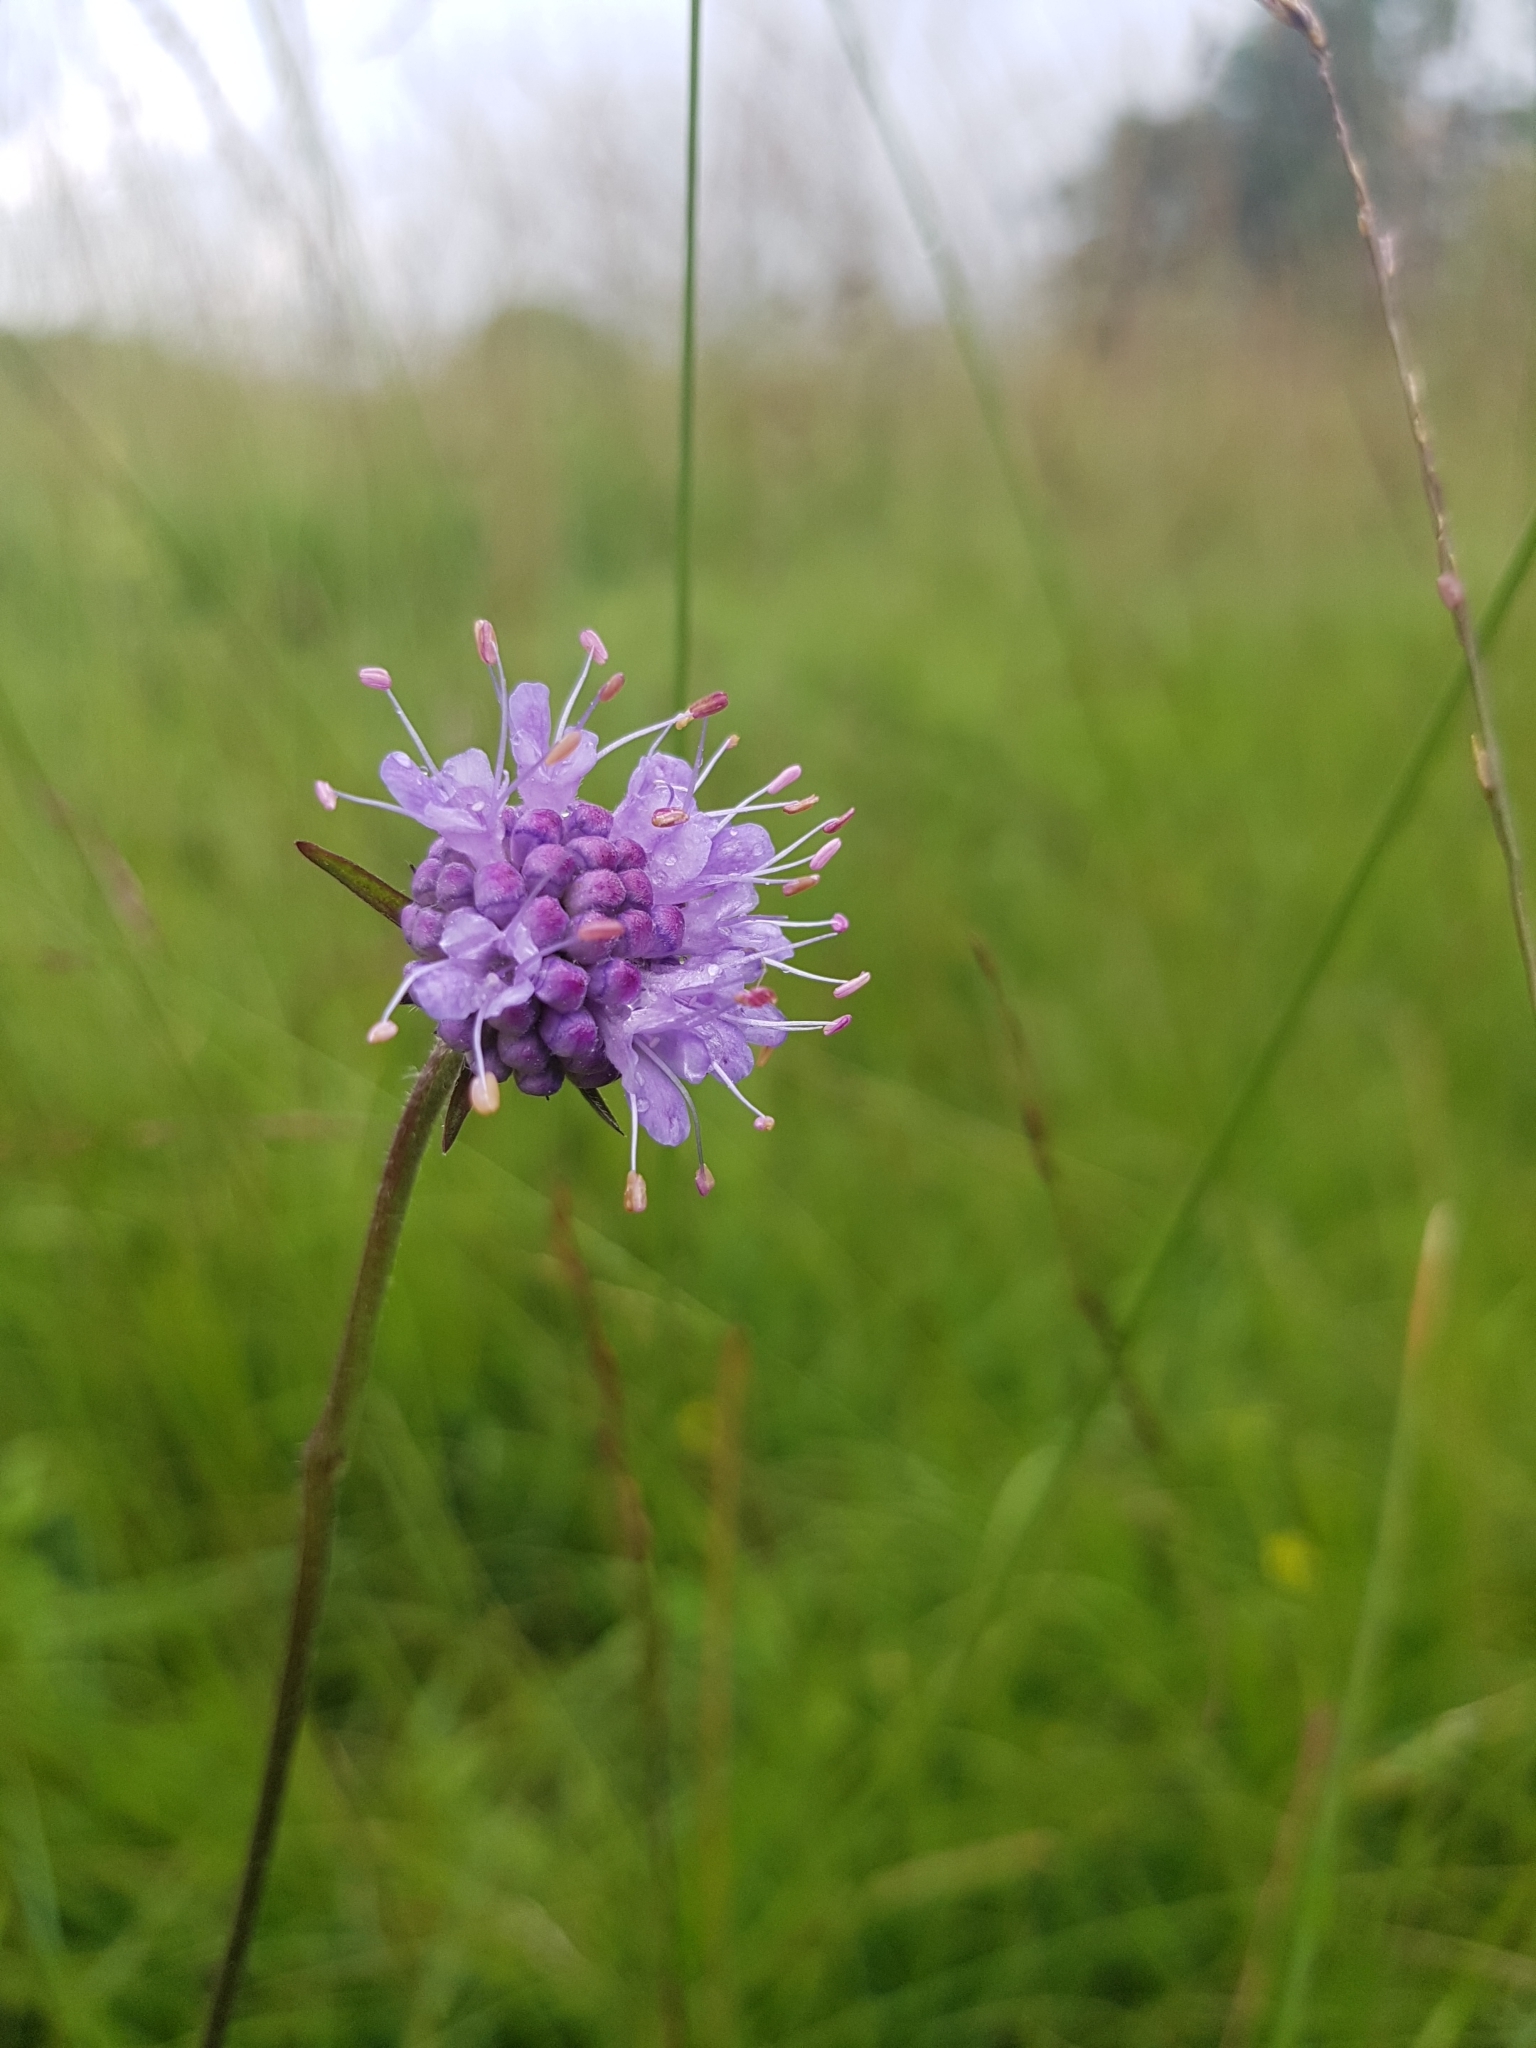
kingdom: Plantae
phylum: Tracheophyta
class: Magnoliopsida
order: Dipsacales
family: Caprifoliaceae
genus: Succisa
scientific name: Succisa pratensis
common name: Devil's-bit
